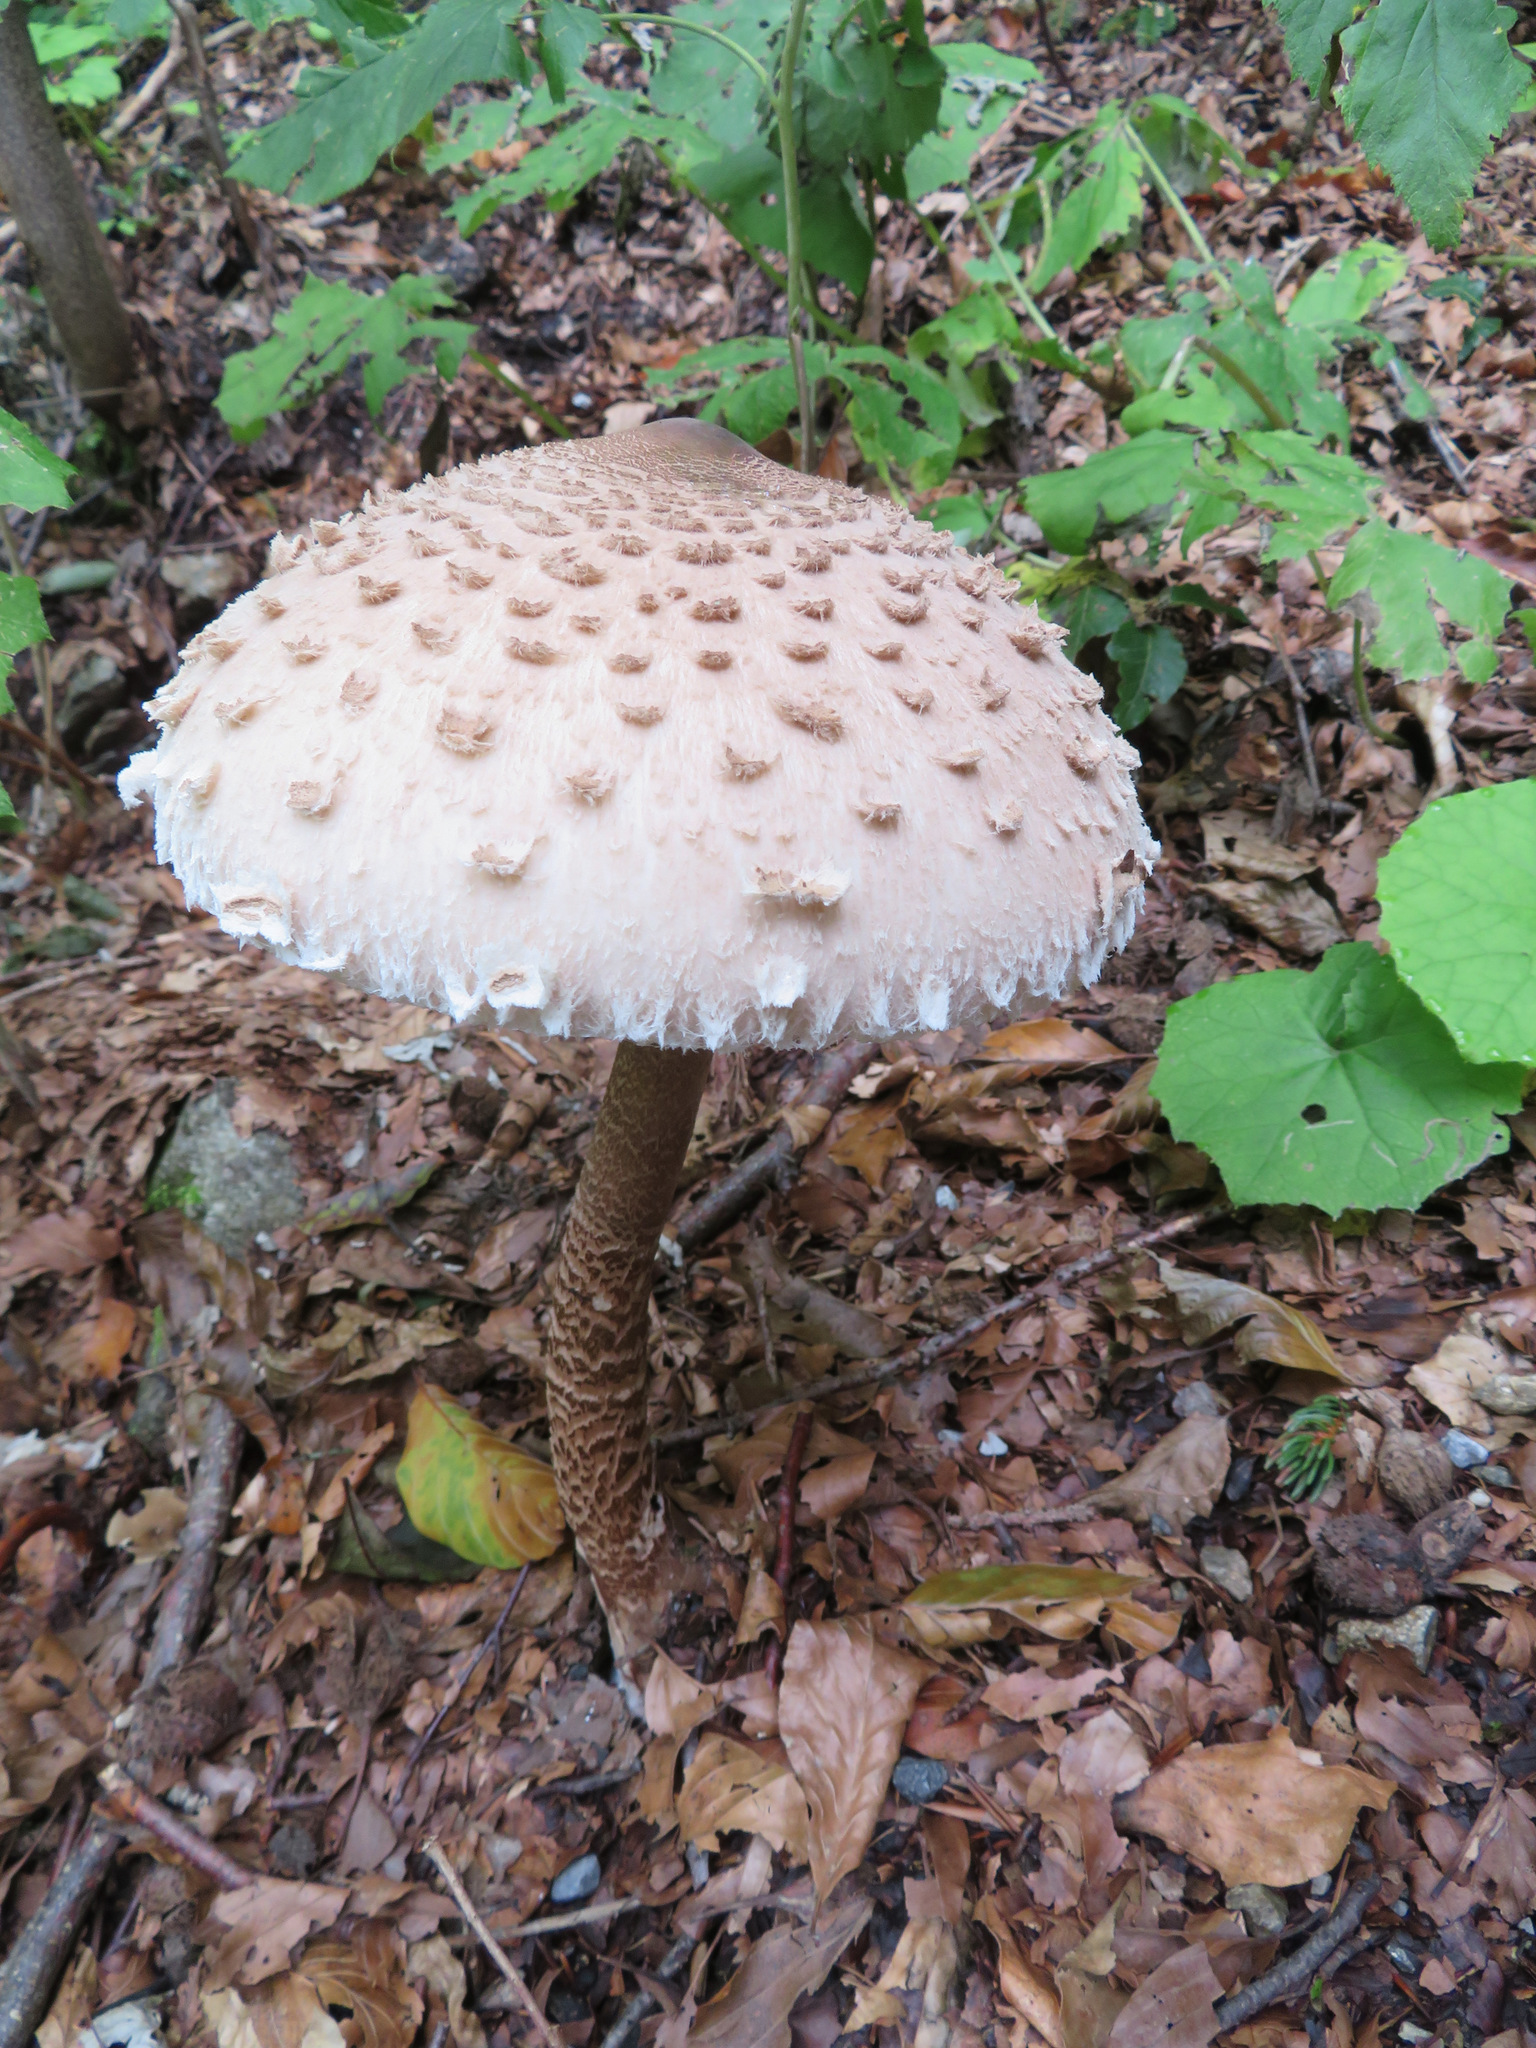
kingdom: Fungi
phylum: Basidiomycota
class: Agaricomycetes
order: Agaricales
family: Agaricaceae
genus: Macrolepiota
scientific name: Macrolepiota procera
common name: Parasol
